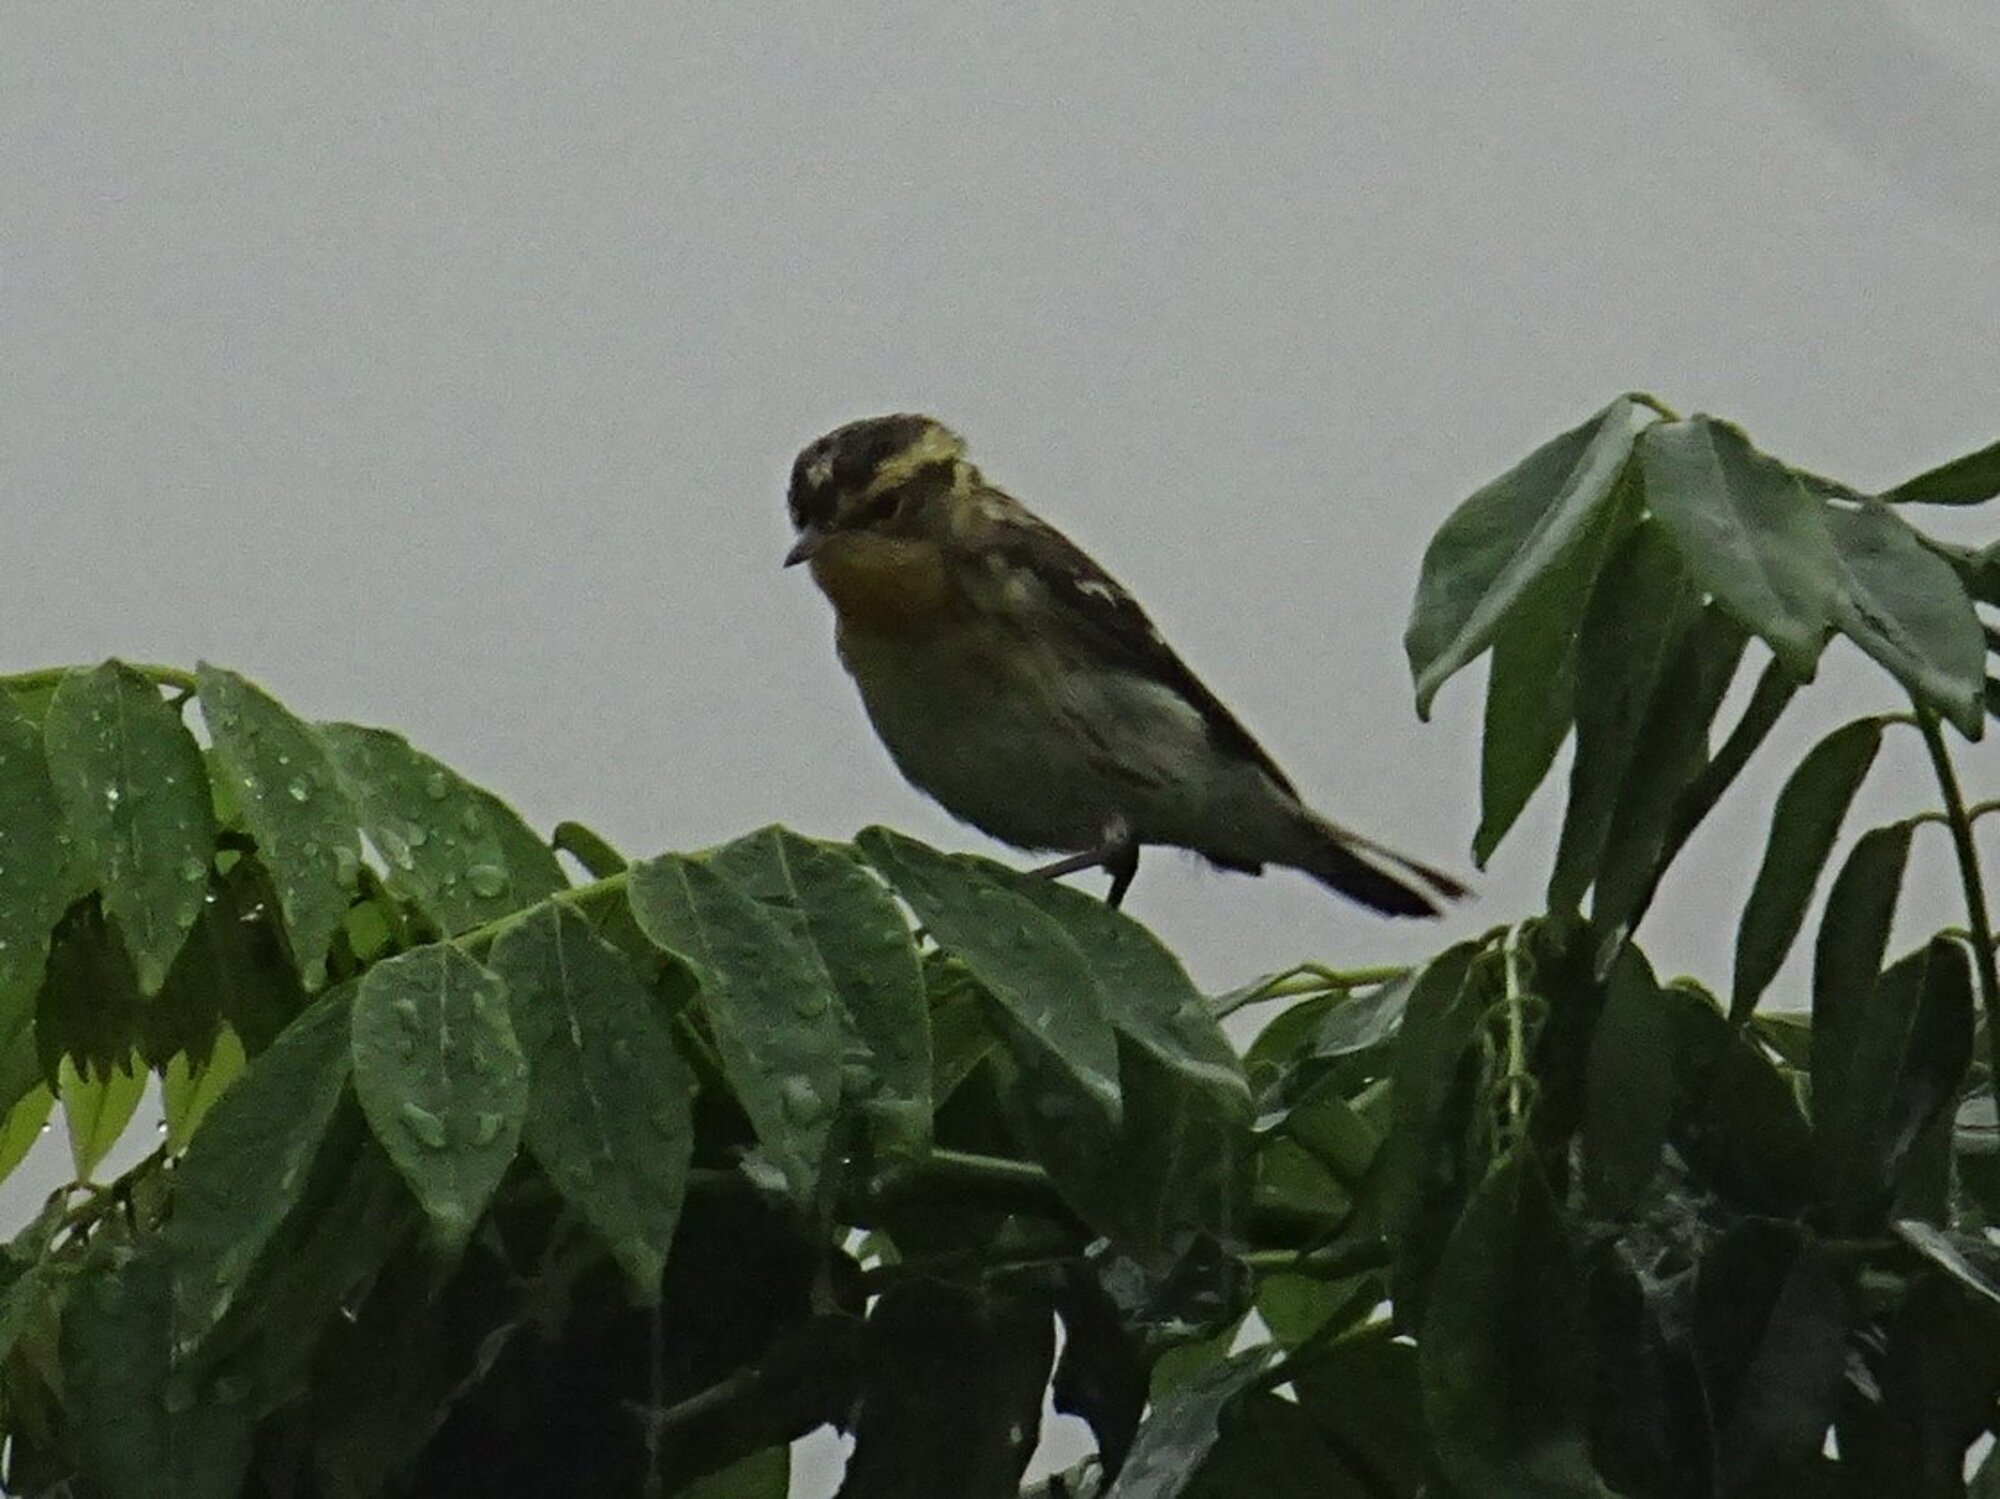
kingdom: Animalia
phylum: Chordata
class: Aves
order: Passeriformes
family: Parulidae
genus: Setophaga
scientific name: Setophaga fusca
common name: Blackburnian warbler
